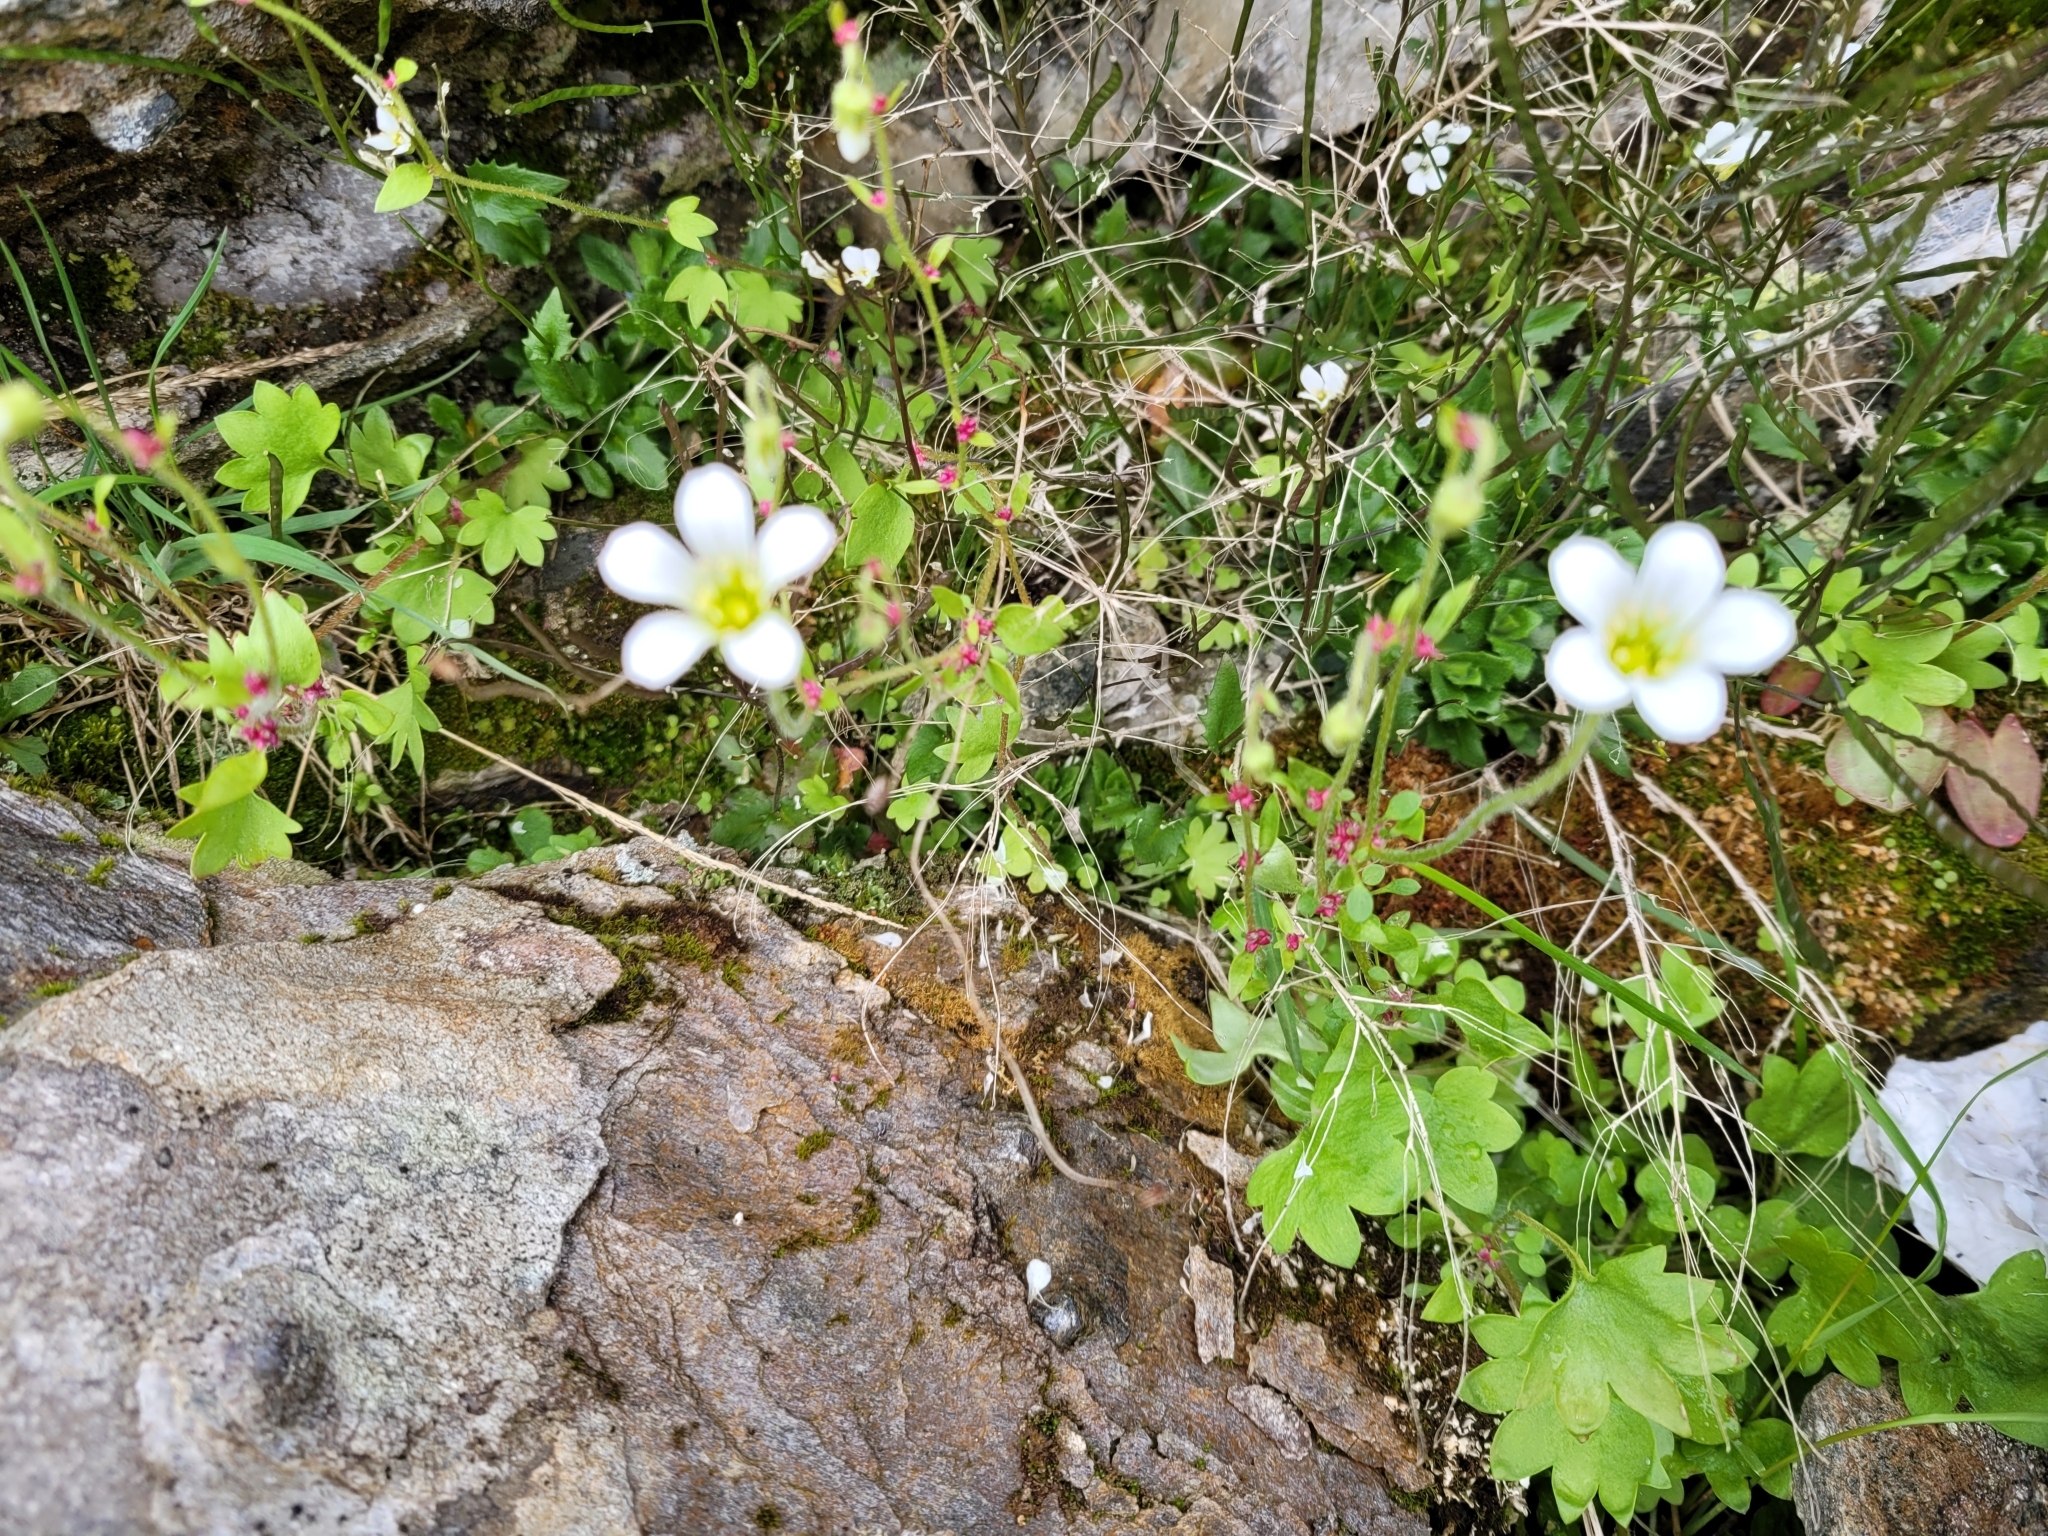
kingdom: Plantae
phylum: Tracheophyta
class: Magnoliopsida
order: Saxifragales
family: Saxifragaceae
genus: Saxifraga
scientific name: Saxifraga cernua
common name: Drooping saxifrage
